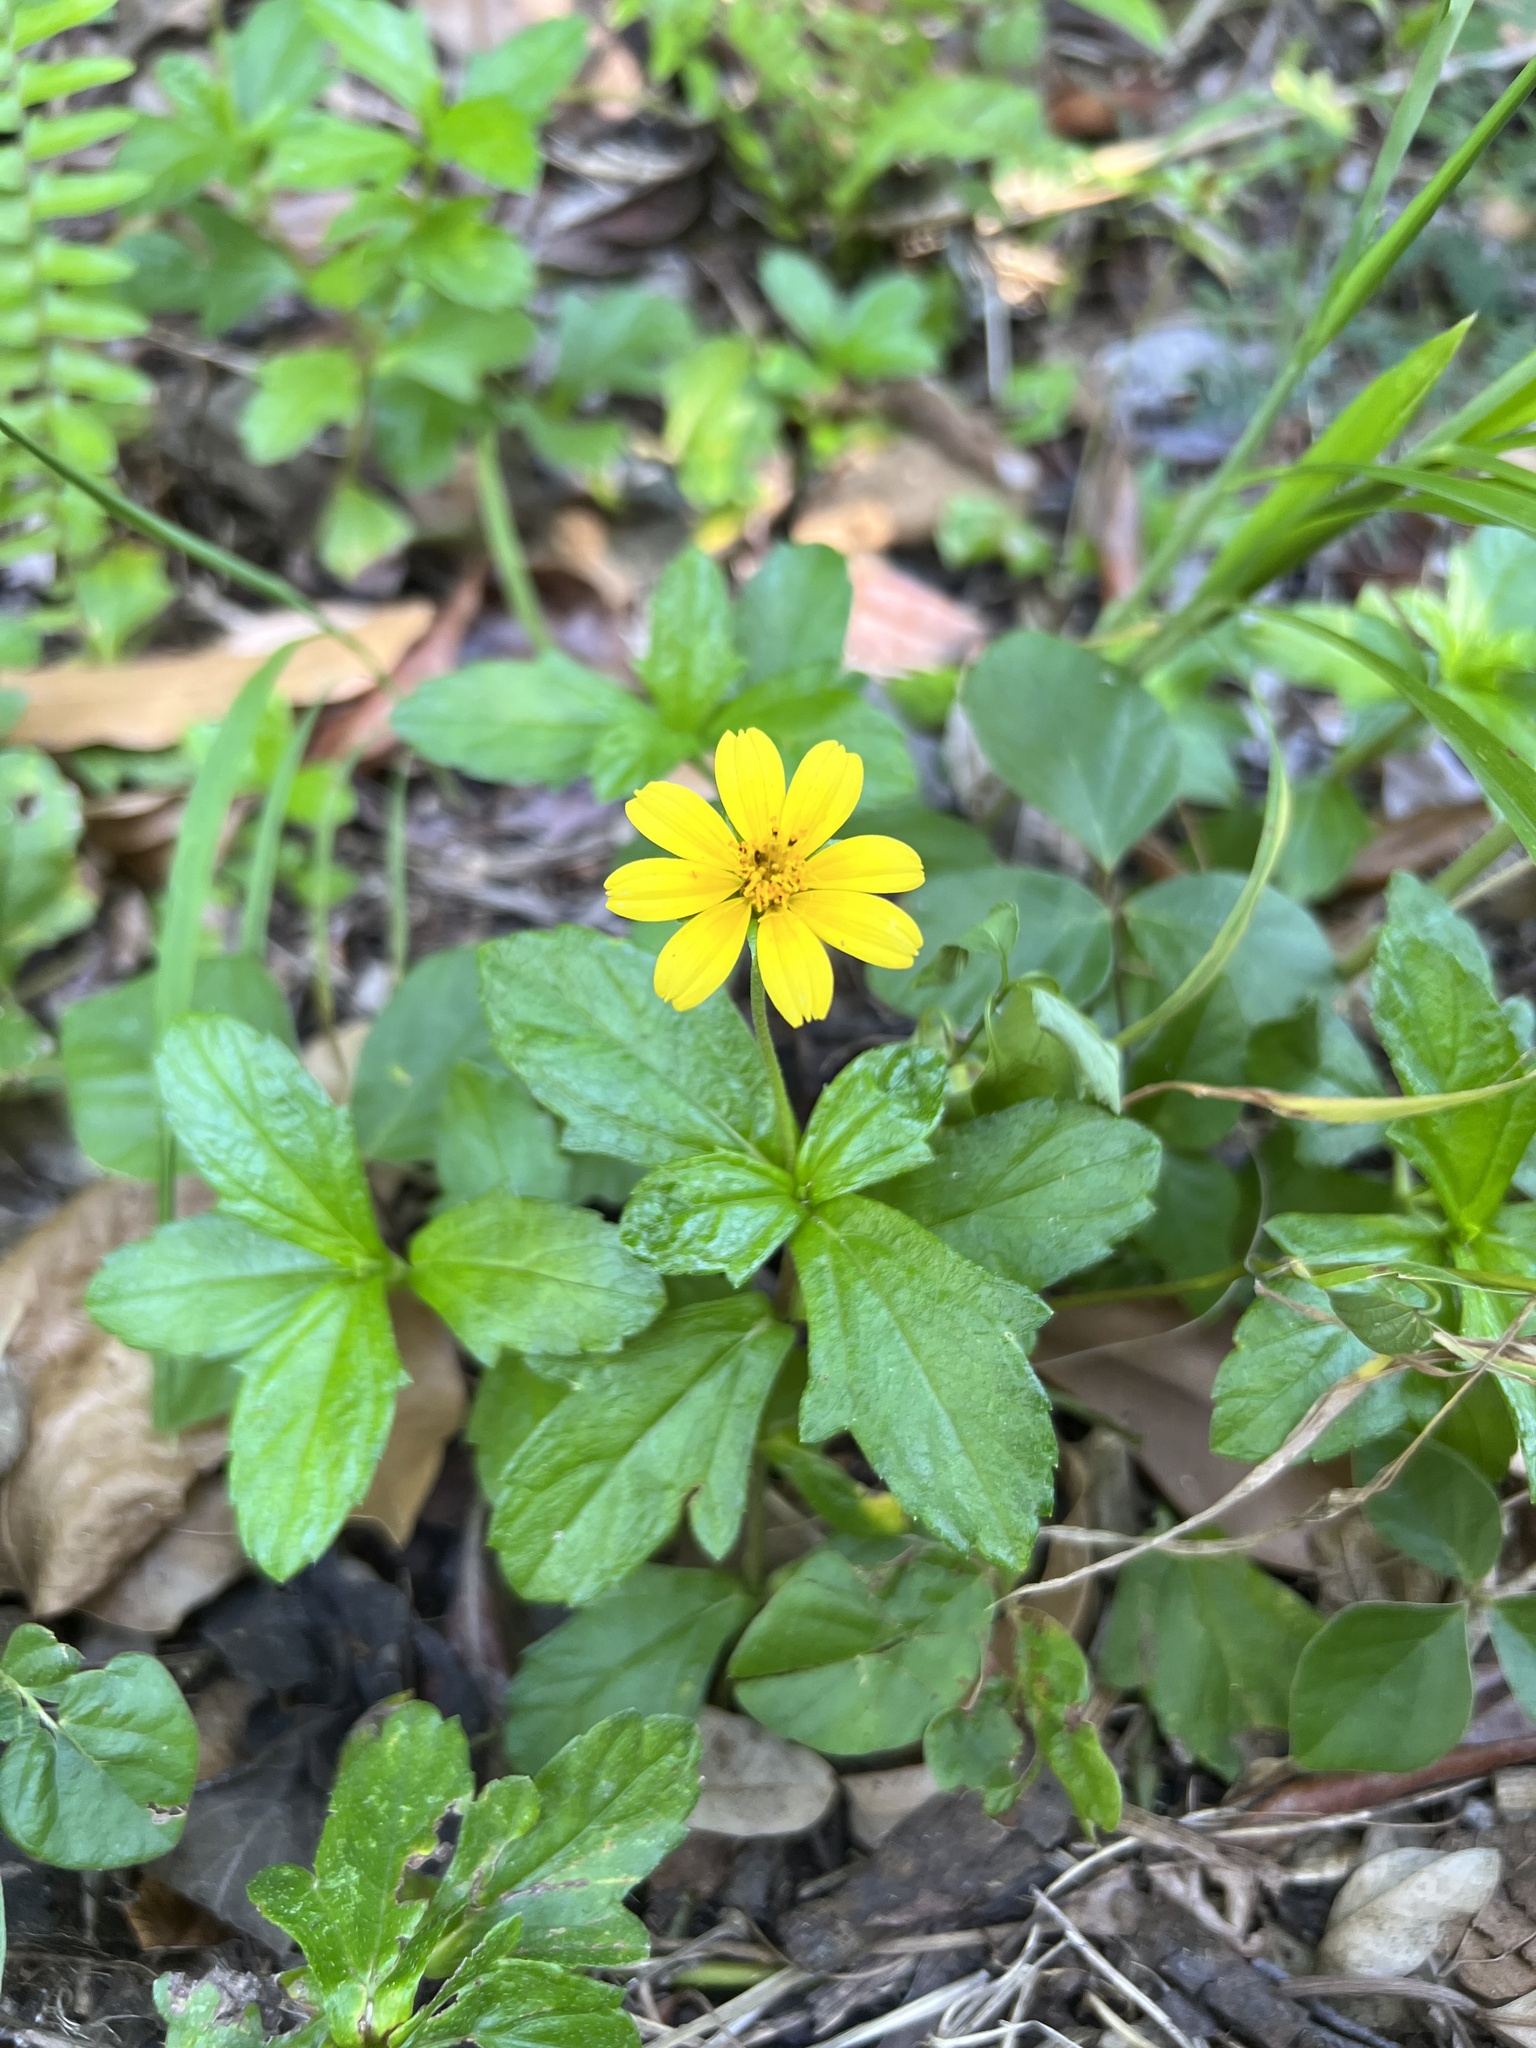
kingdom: Plantae
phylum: Tracheophyta
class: Magnoliopsida
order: Asterales
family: Asteraceae
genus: Sphagneticola
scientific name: Sphagneticola trilobata
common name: Bay biscayne creeping-oxeye
